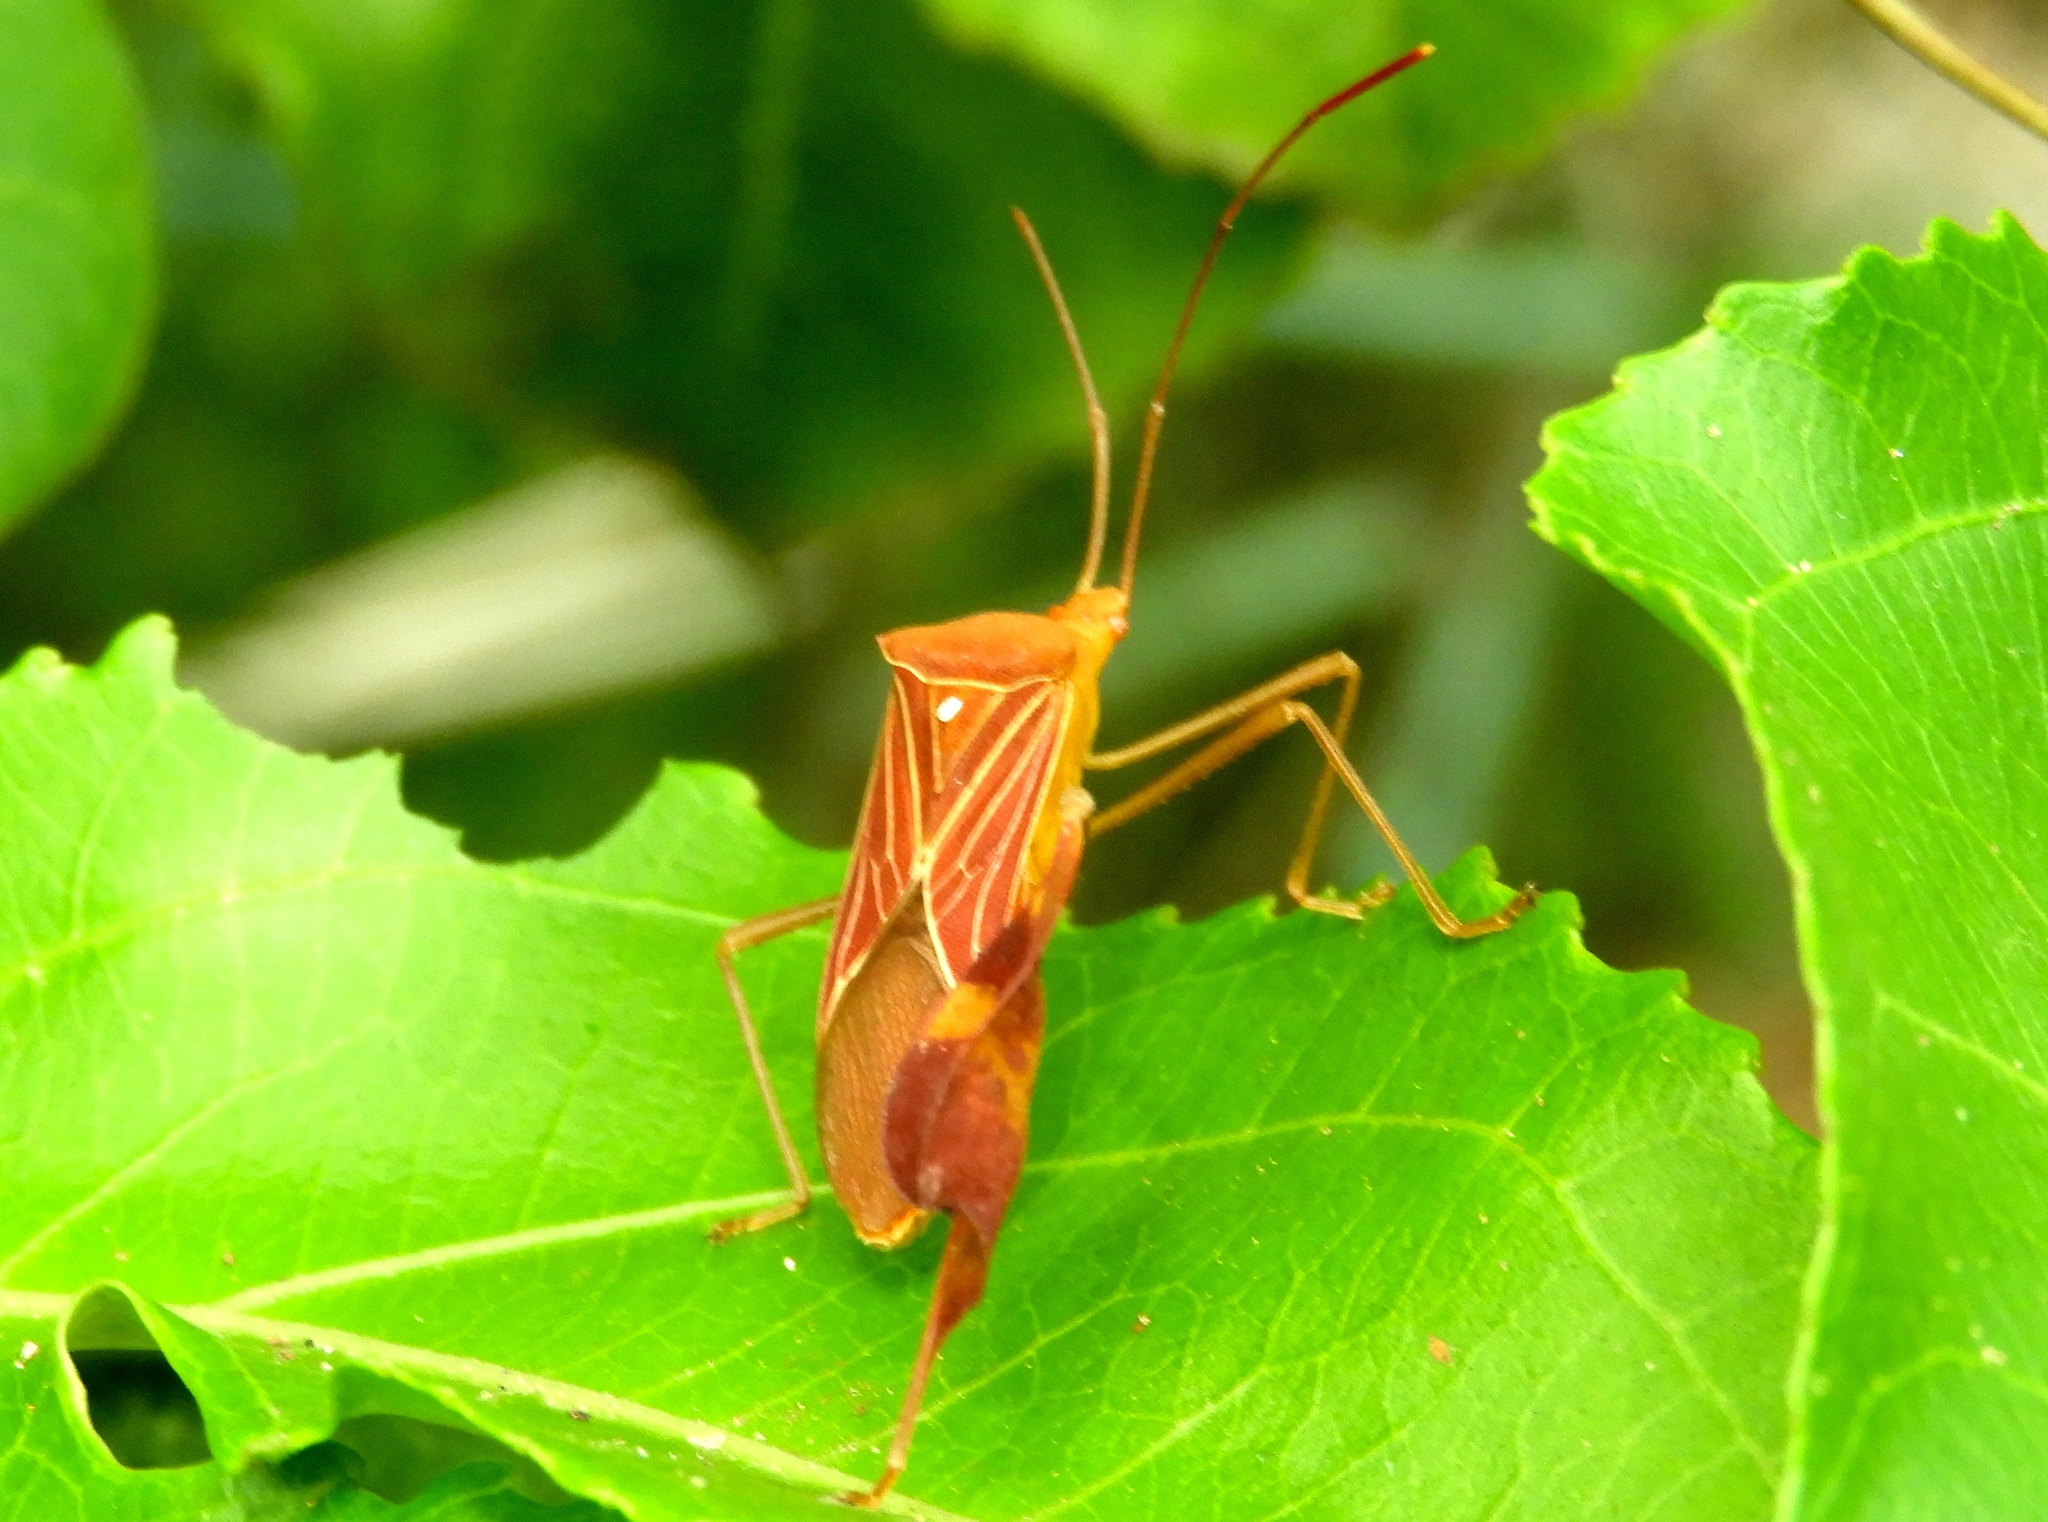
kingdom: Animalia
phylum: Arthropoda
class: Insecta
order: Hemiptera
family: Coreidae
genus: Bitta
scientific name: Bitta
